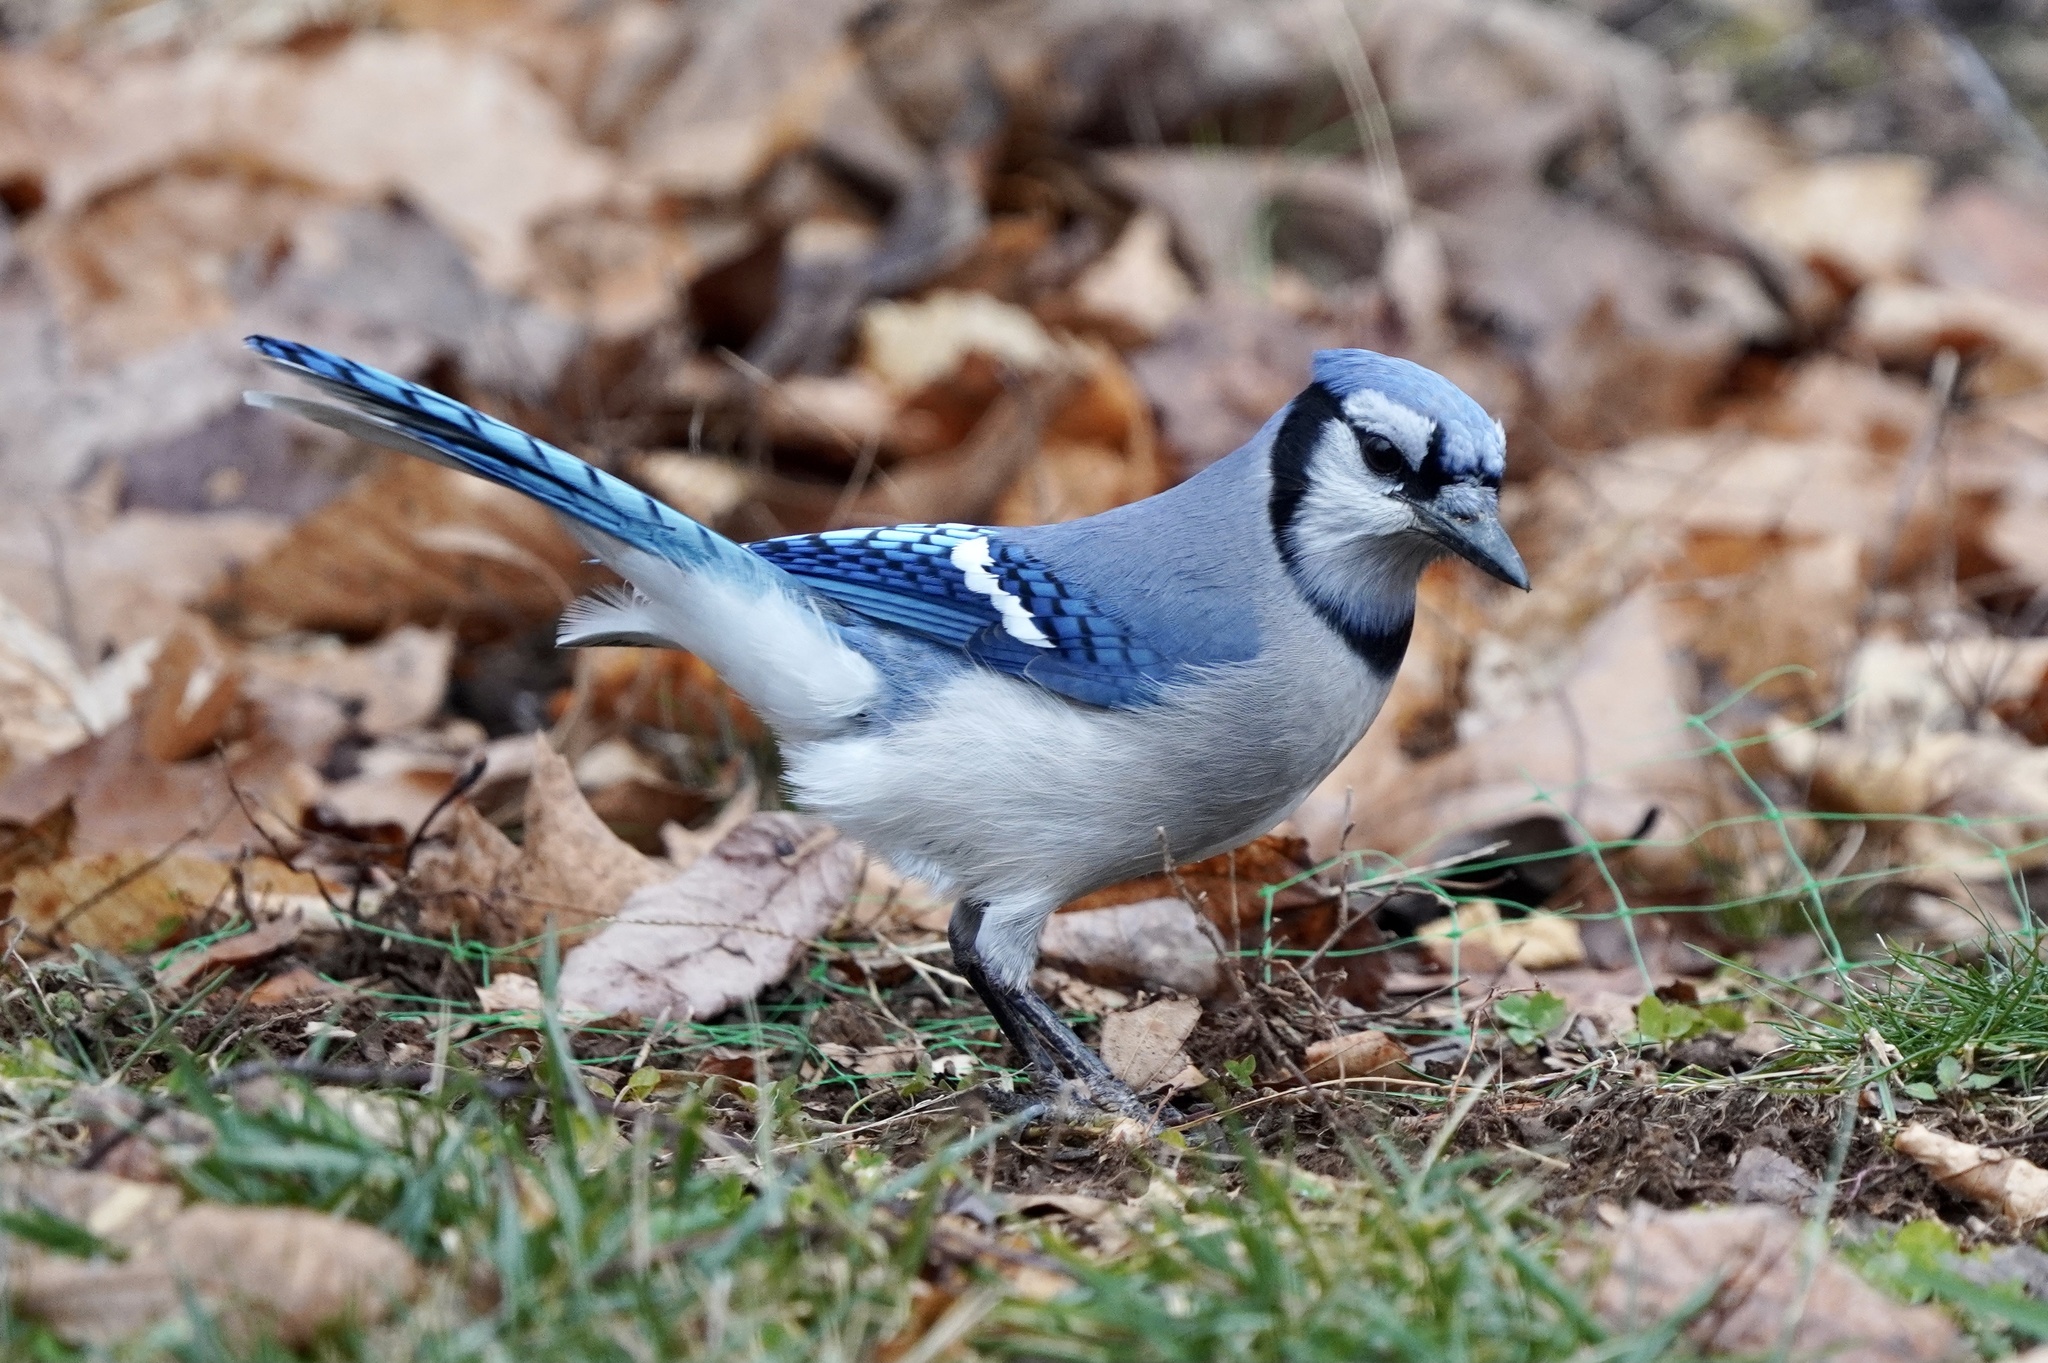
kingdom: Animalia
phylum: Chordata
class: Aves
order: Passeriformes
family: Corvidae
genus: Cyanocitta
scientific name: Cyanocitta cristata
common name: Blue jay
